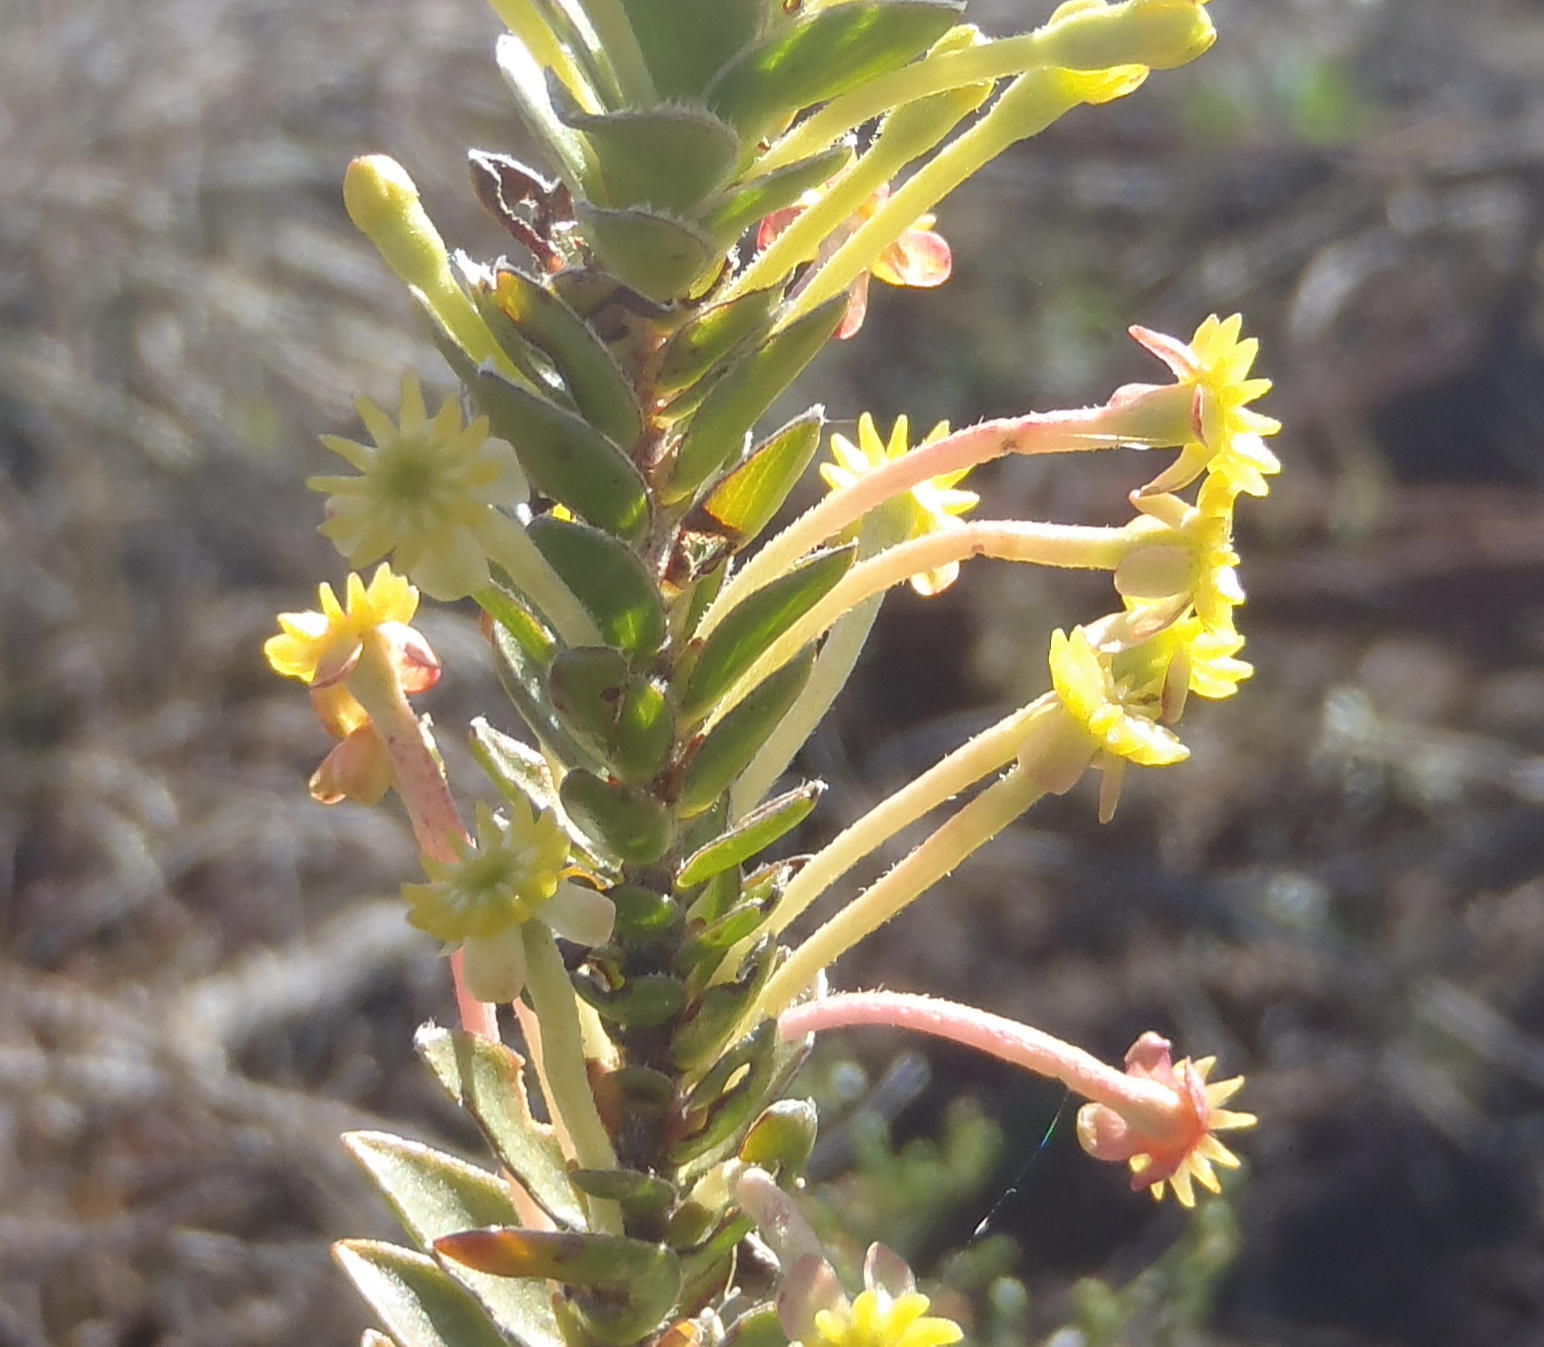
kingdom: Plantae
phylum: Tracheophyta
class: Magnoliopsida
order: Malvales
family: Thymelaeaceae
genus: Struthiola
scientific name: Struthiola argentea
